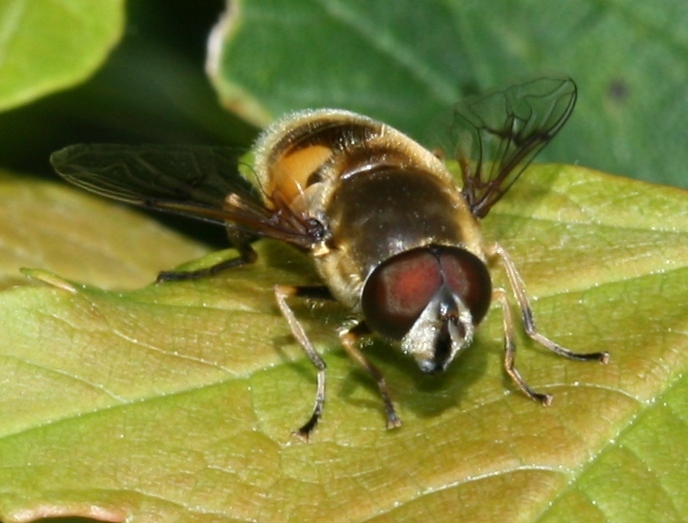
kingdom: Animalia
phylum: Arthropoda
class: Insecta
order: Diptera
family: Syrphidae
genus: Cheilosia
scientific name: Cheilosia morio
